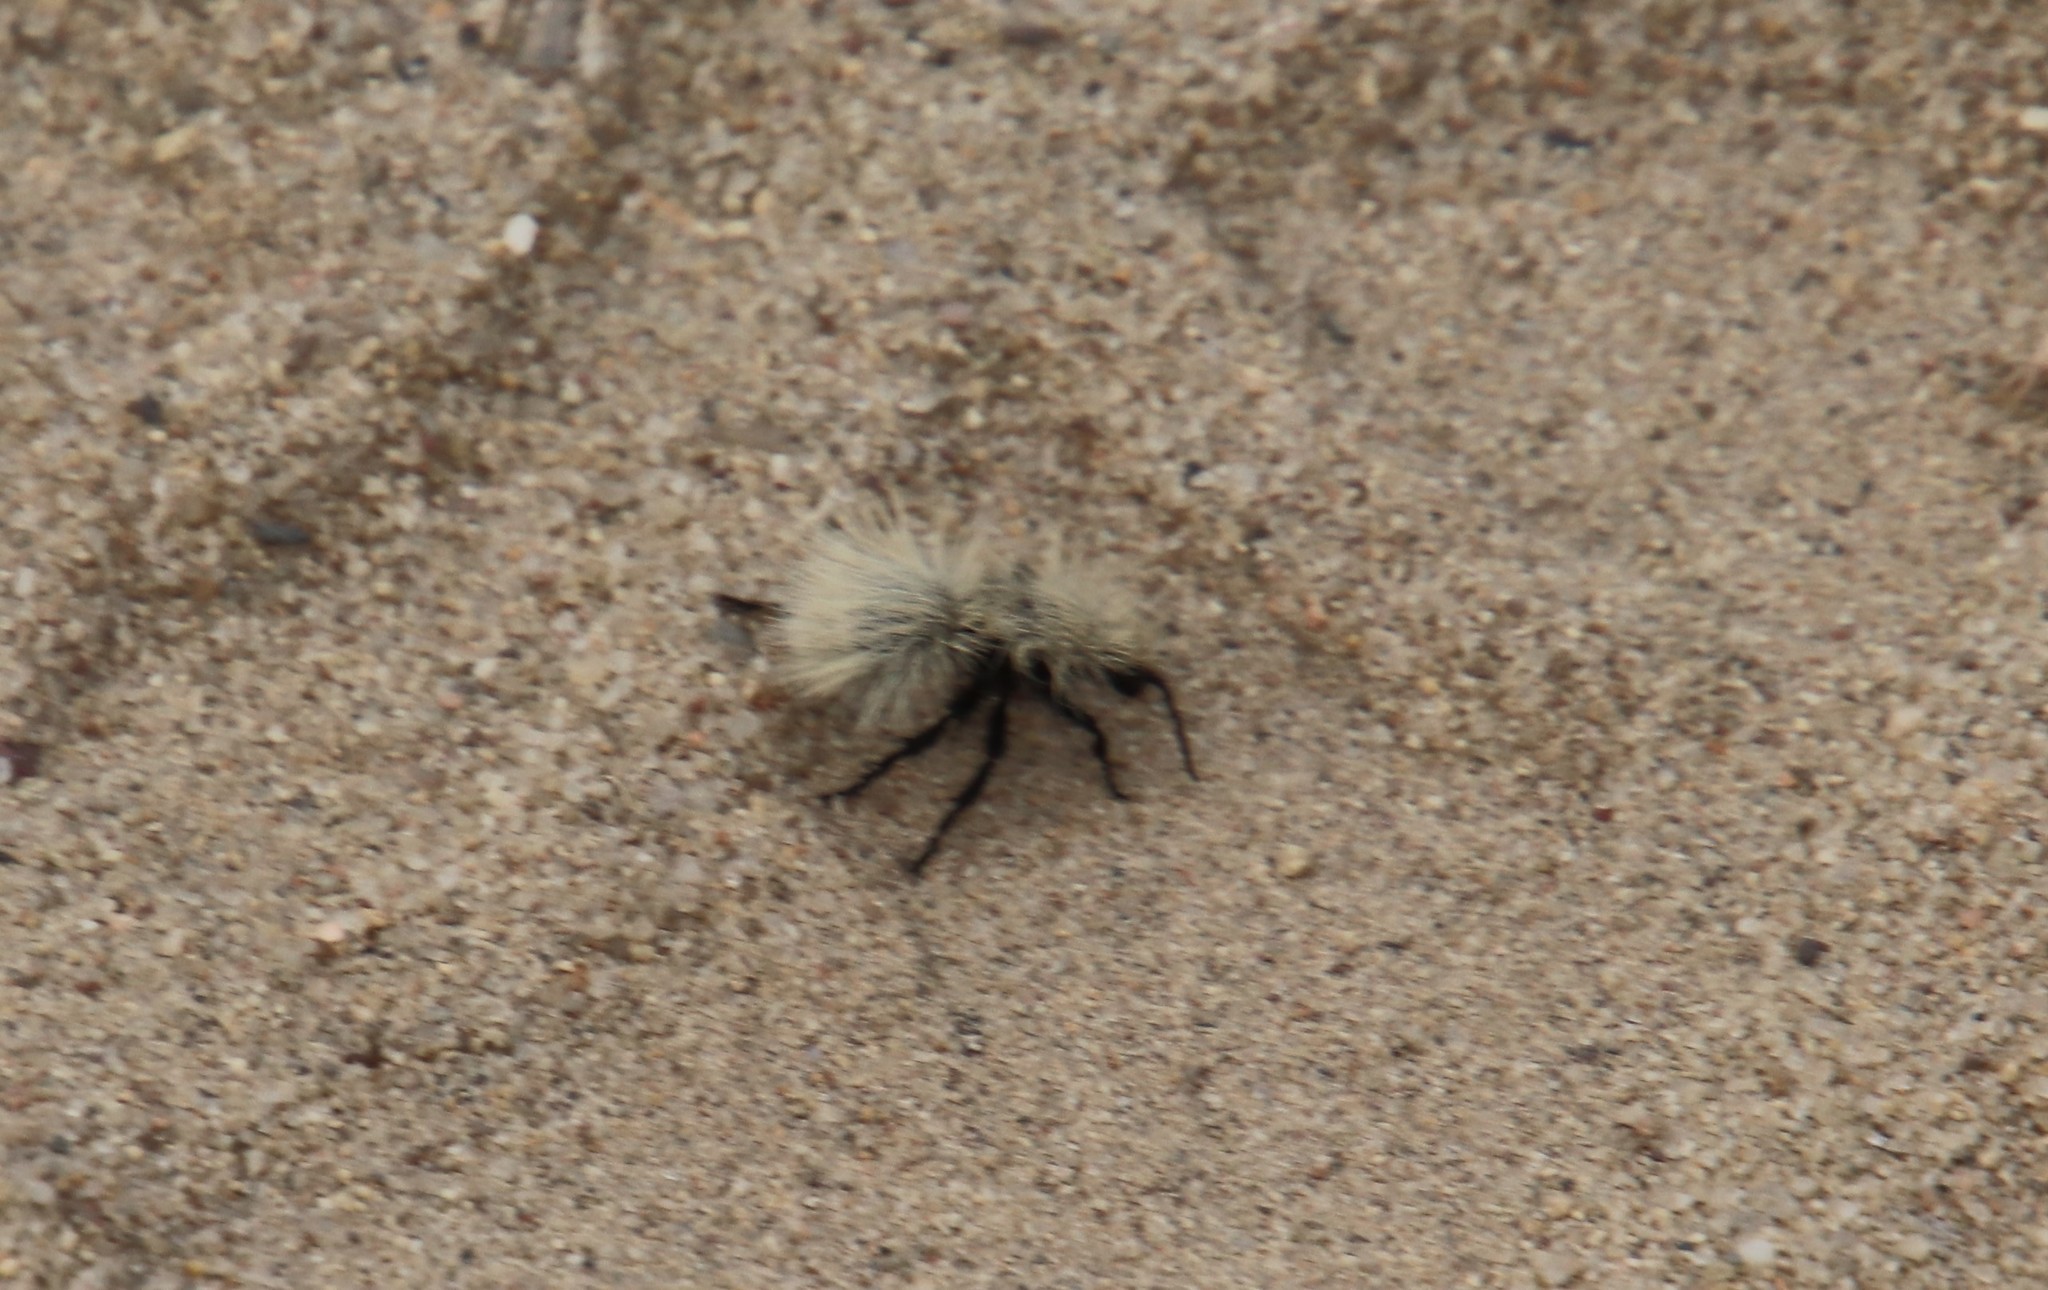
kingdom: Animalia
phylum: Arthropoda
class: Insecta
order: Hymenoptera
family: Mutillidae
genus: Dasymutilla
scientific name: Dasymutilla
